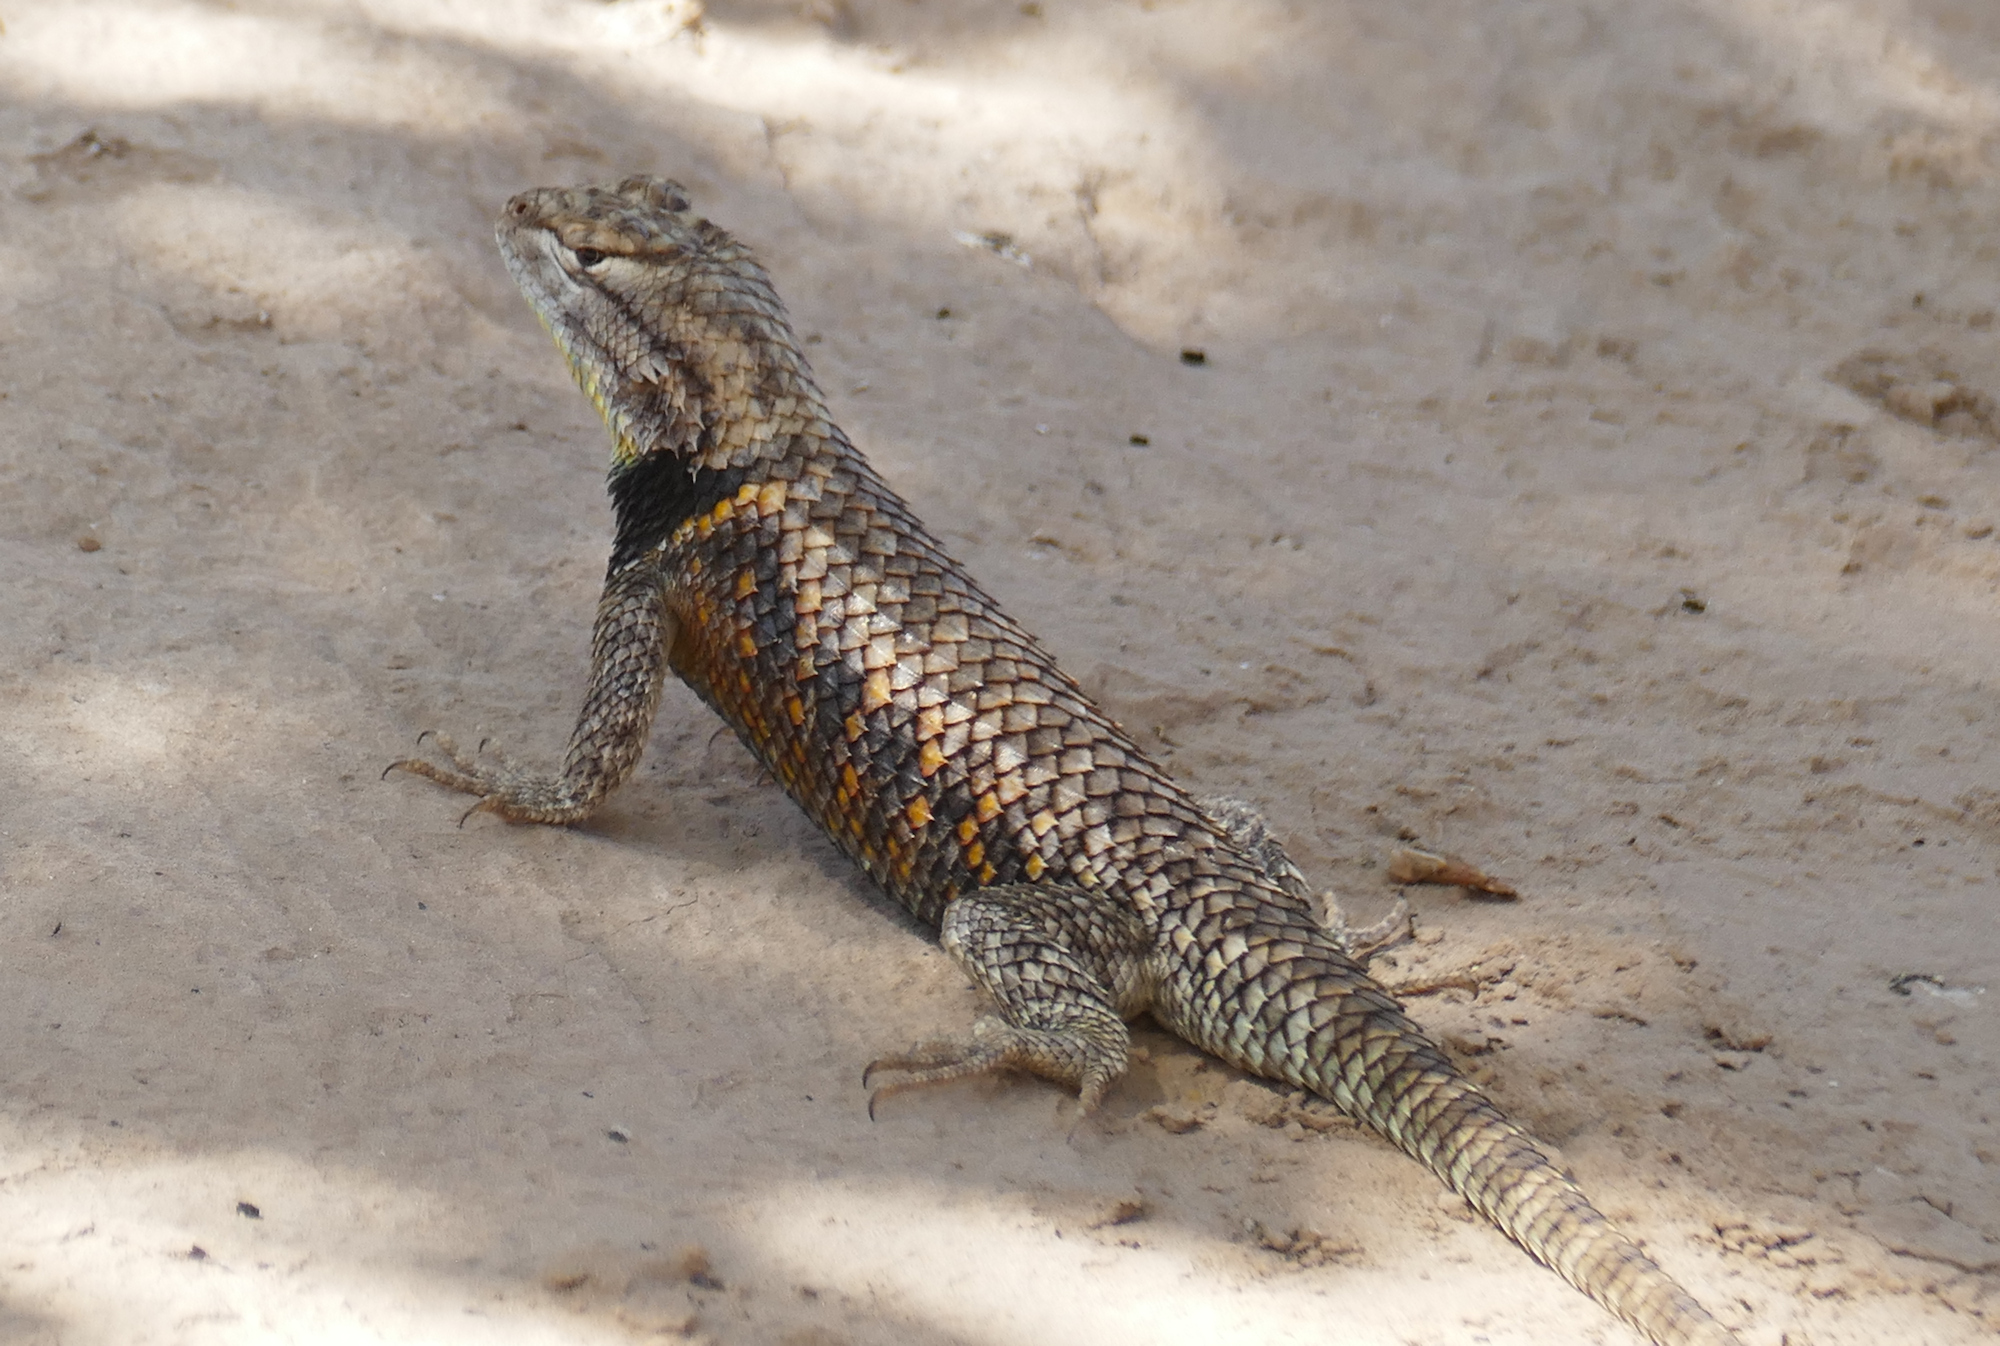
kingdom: Animalia
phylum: Chordata
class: Squamata
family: Phrynosomatidae
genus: Sceloporus
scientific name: Sceloporus magister
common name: Desert spiny lizard
